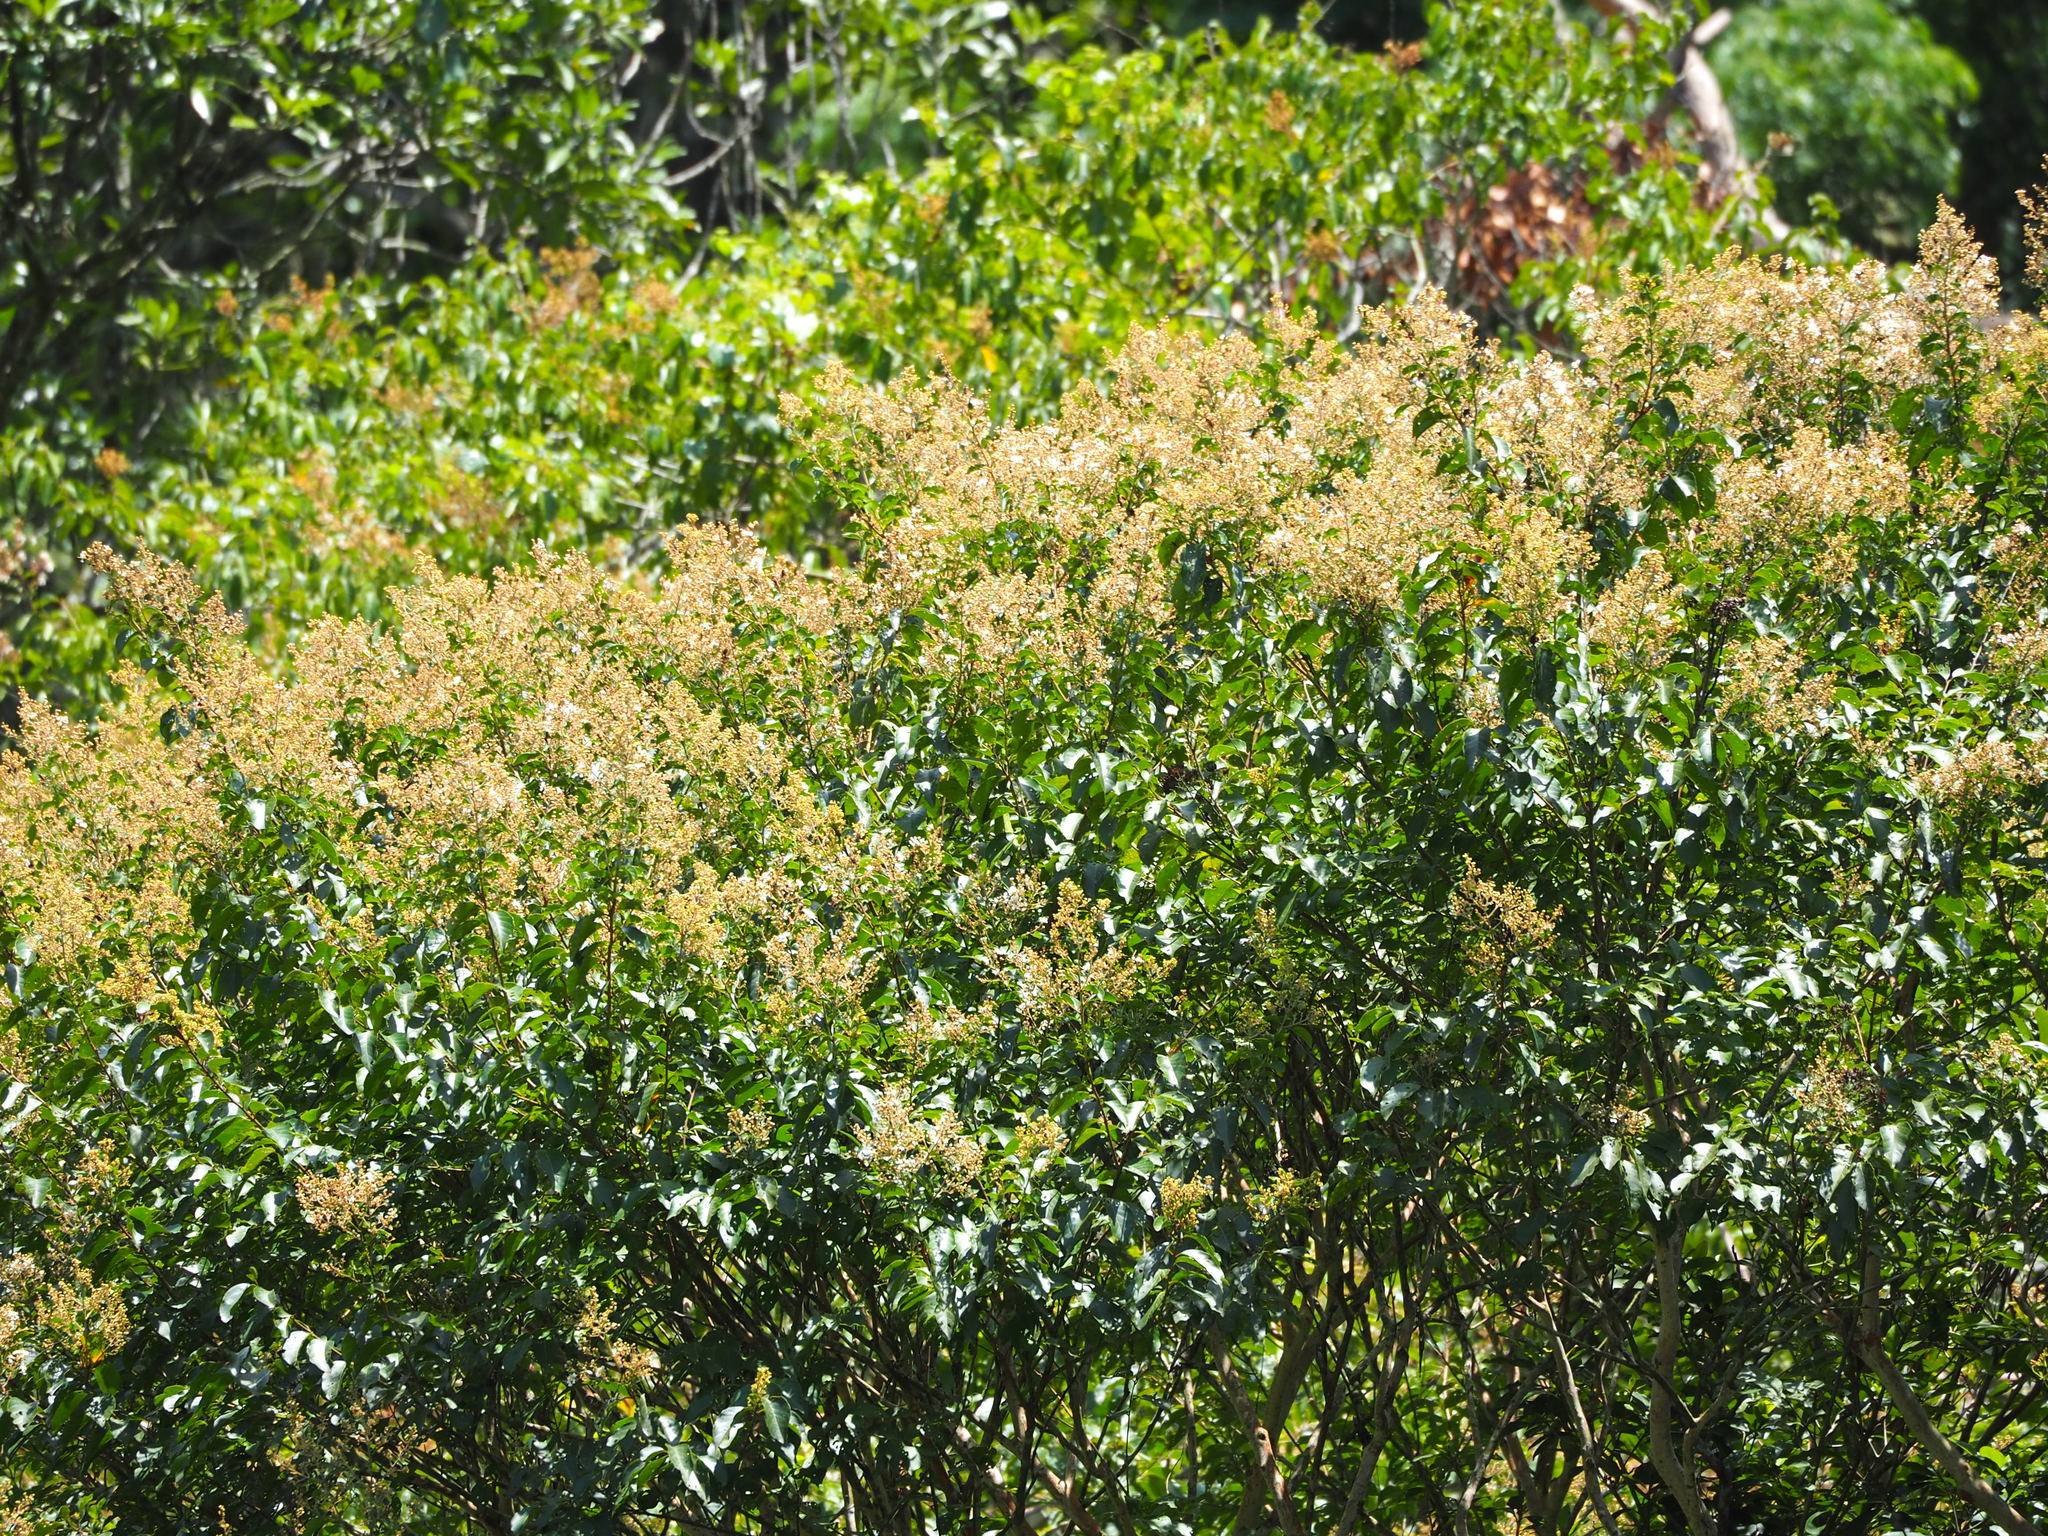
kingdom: Plantae
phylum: Tracheophyta
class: Magnoliopsida
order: Myrtales
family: Lythraceae
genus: Lagerstroemia
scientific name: Lagerstroemia subcostata
